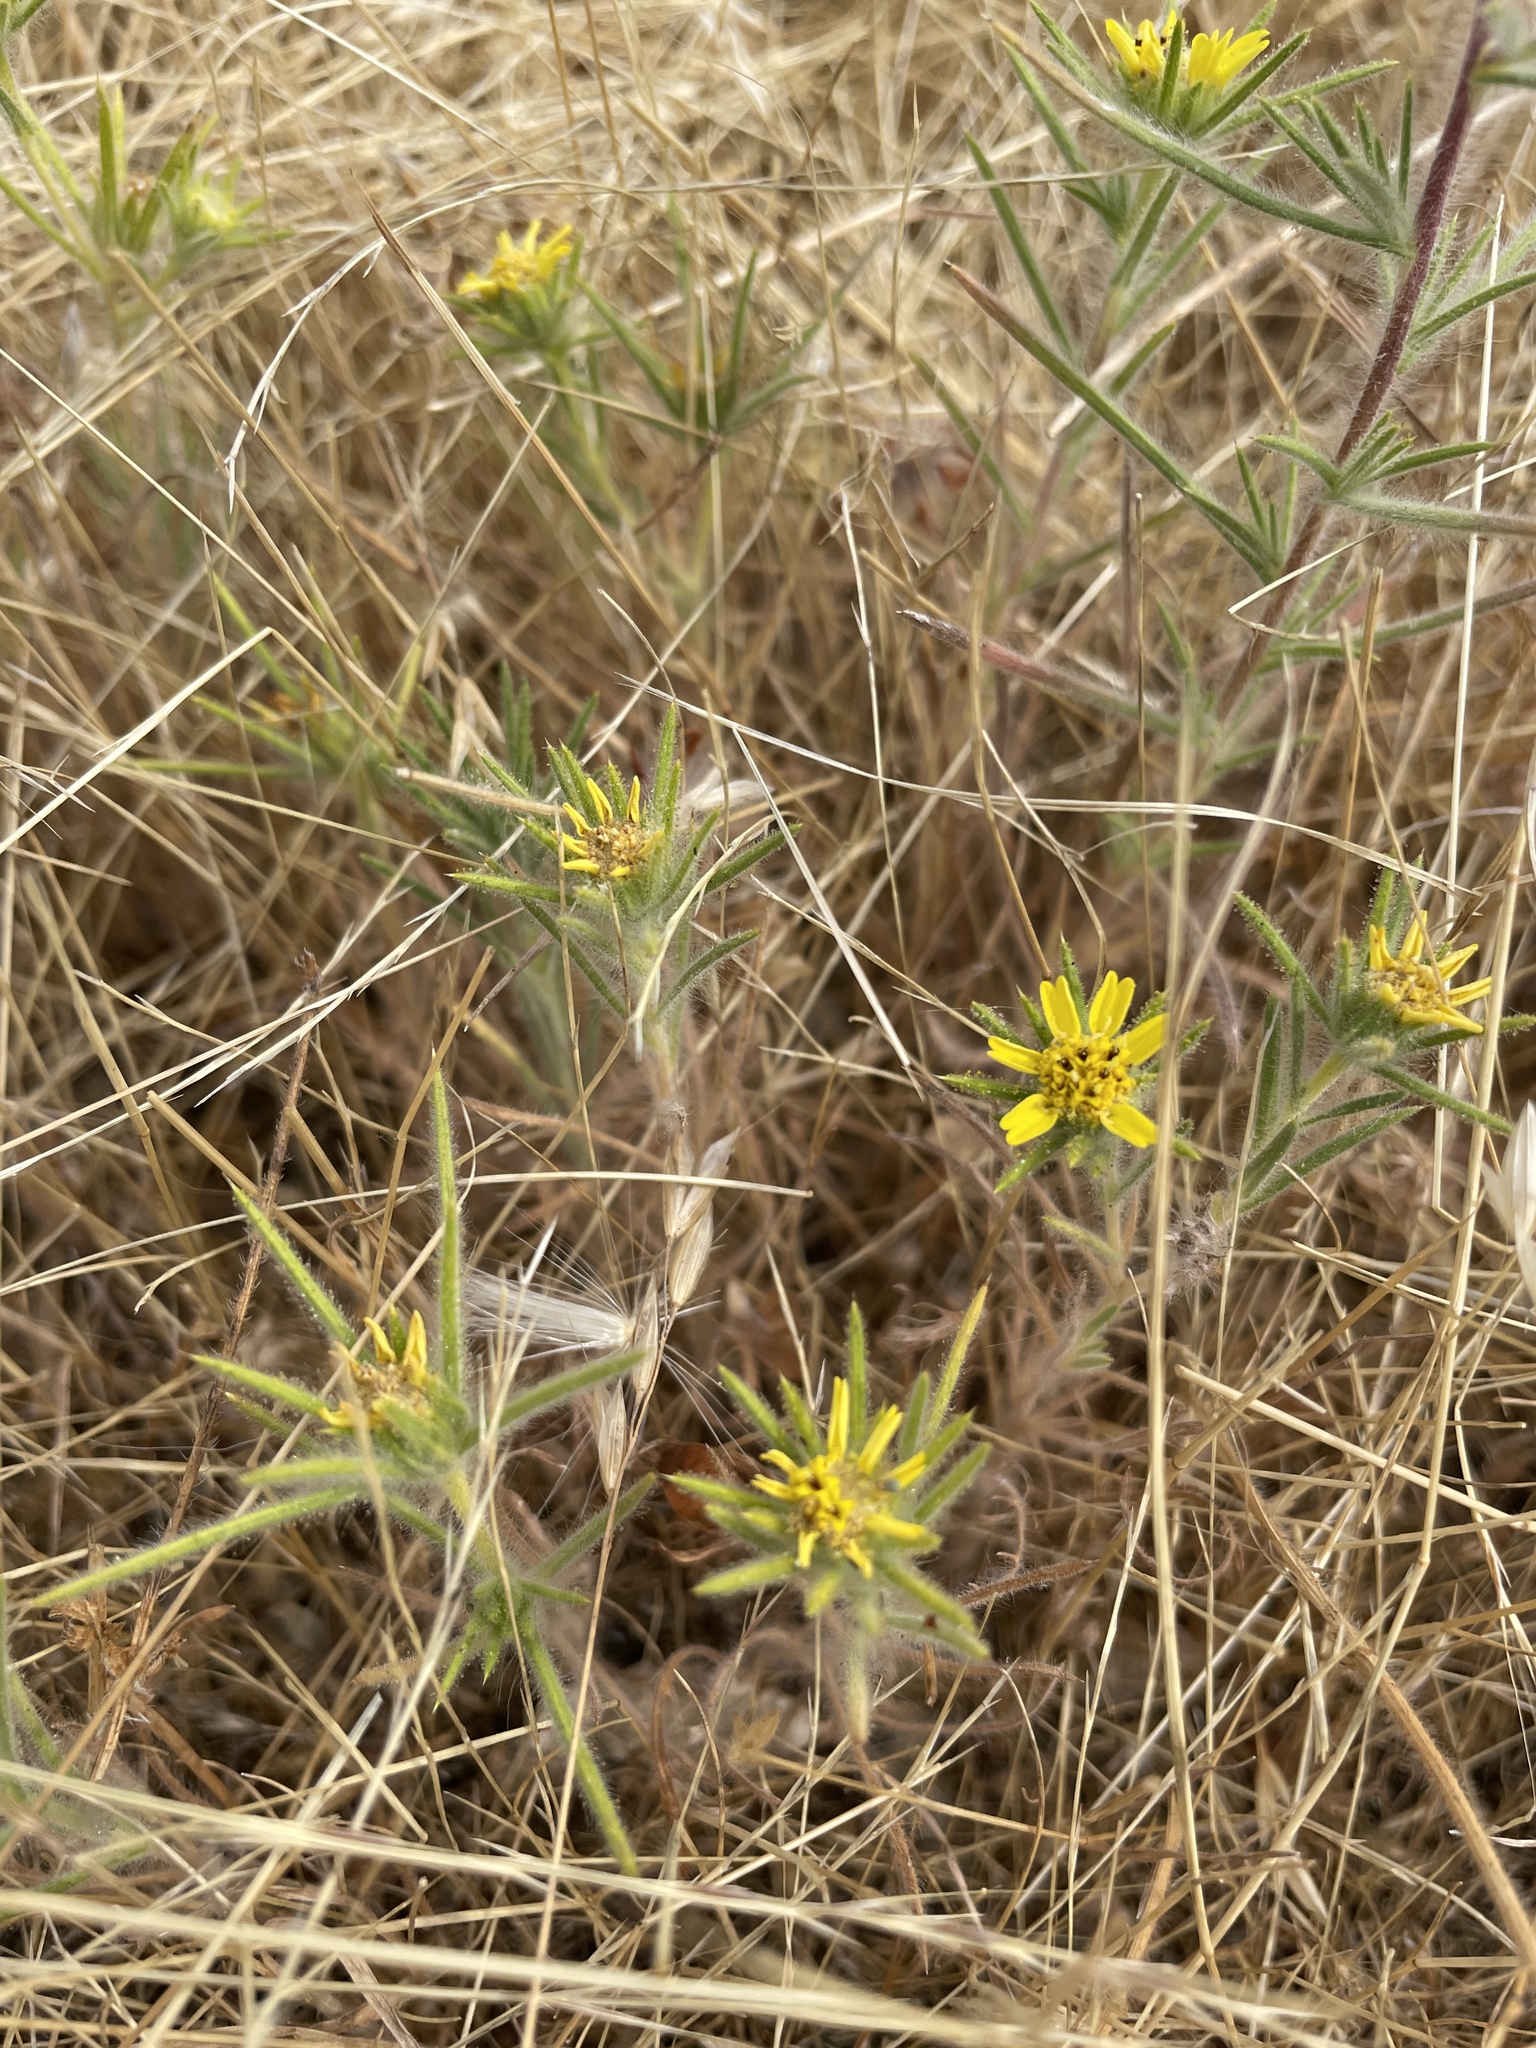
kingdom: Plantae
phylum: Tracheophyta
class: Magnoliopsida
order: Asterales
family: Asteraceae
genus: Centromadia
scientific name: Centromadia fitchii
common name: Fitch's spikeweed
